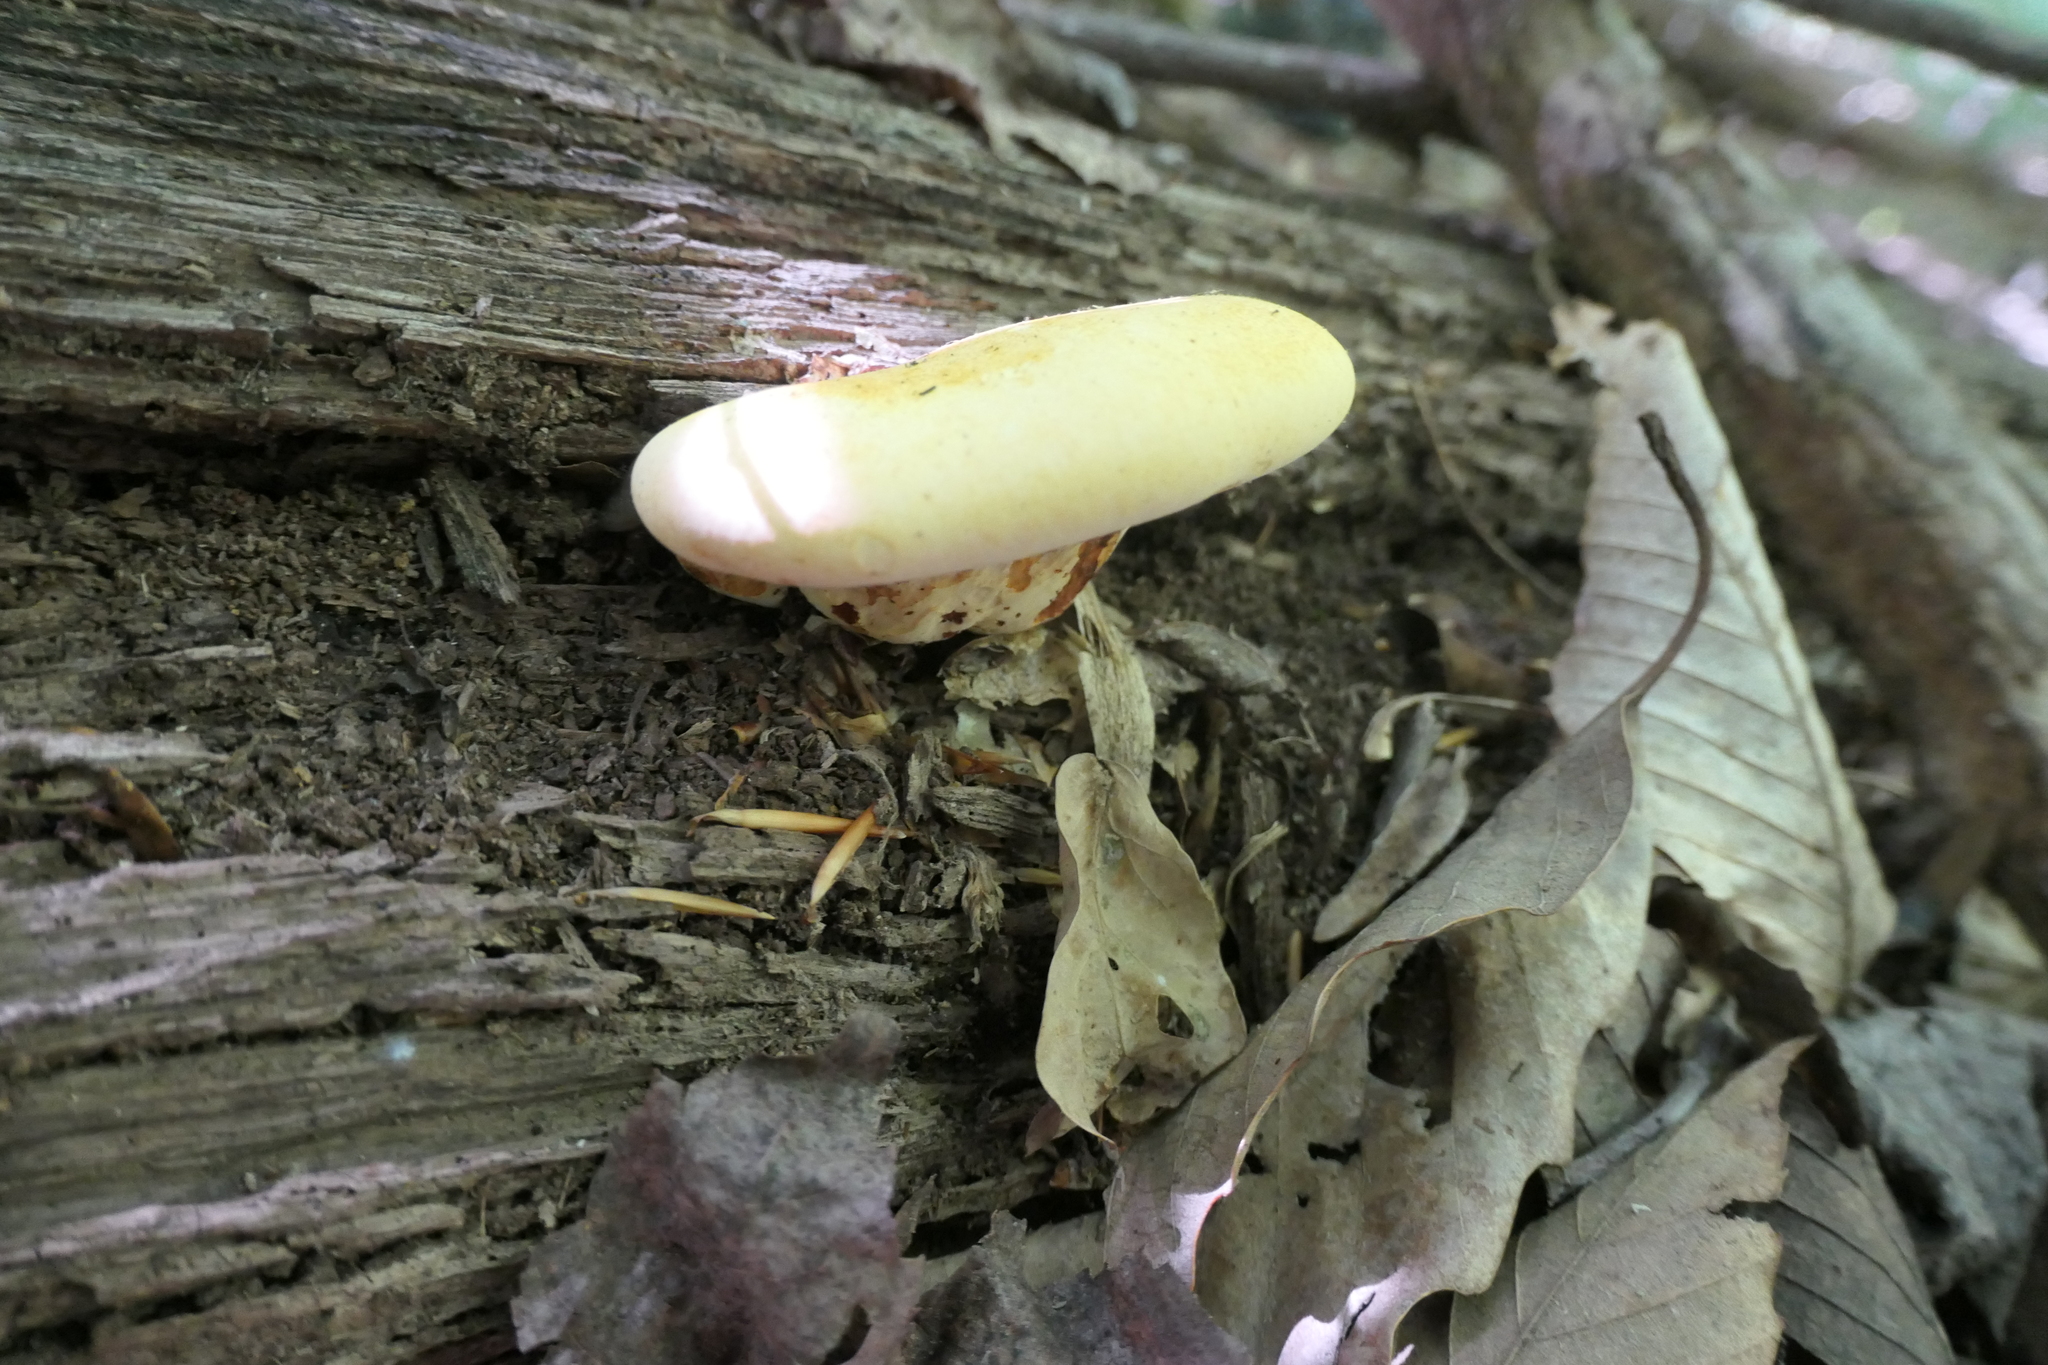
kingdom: Fungi
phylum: Basidiomycota
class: Agaricomycetes
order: Polyporales
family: Fomitopsidaceae
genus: Fomitopsis
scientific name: Fomitopsis
